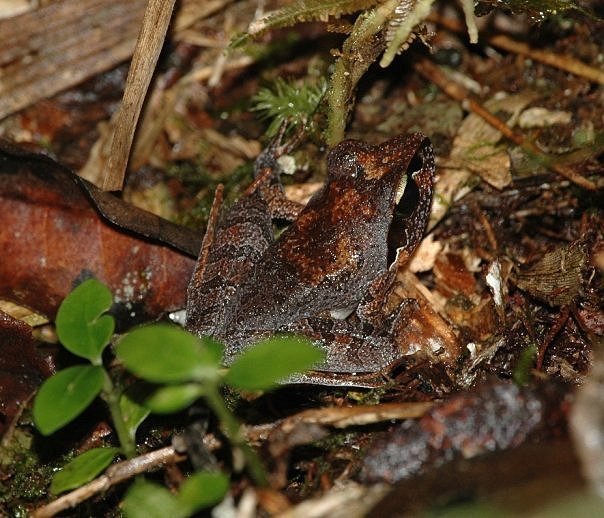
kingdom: Animalia
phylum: Chordata
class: Amphibia
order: Anura
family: Mantellidae
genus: Aglyptodactylus
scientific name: Aglyptodactylus madagascariensis
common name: Madagascar jumping frog
